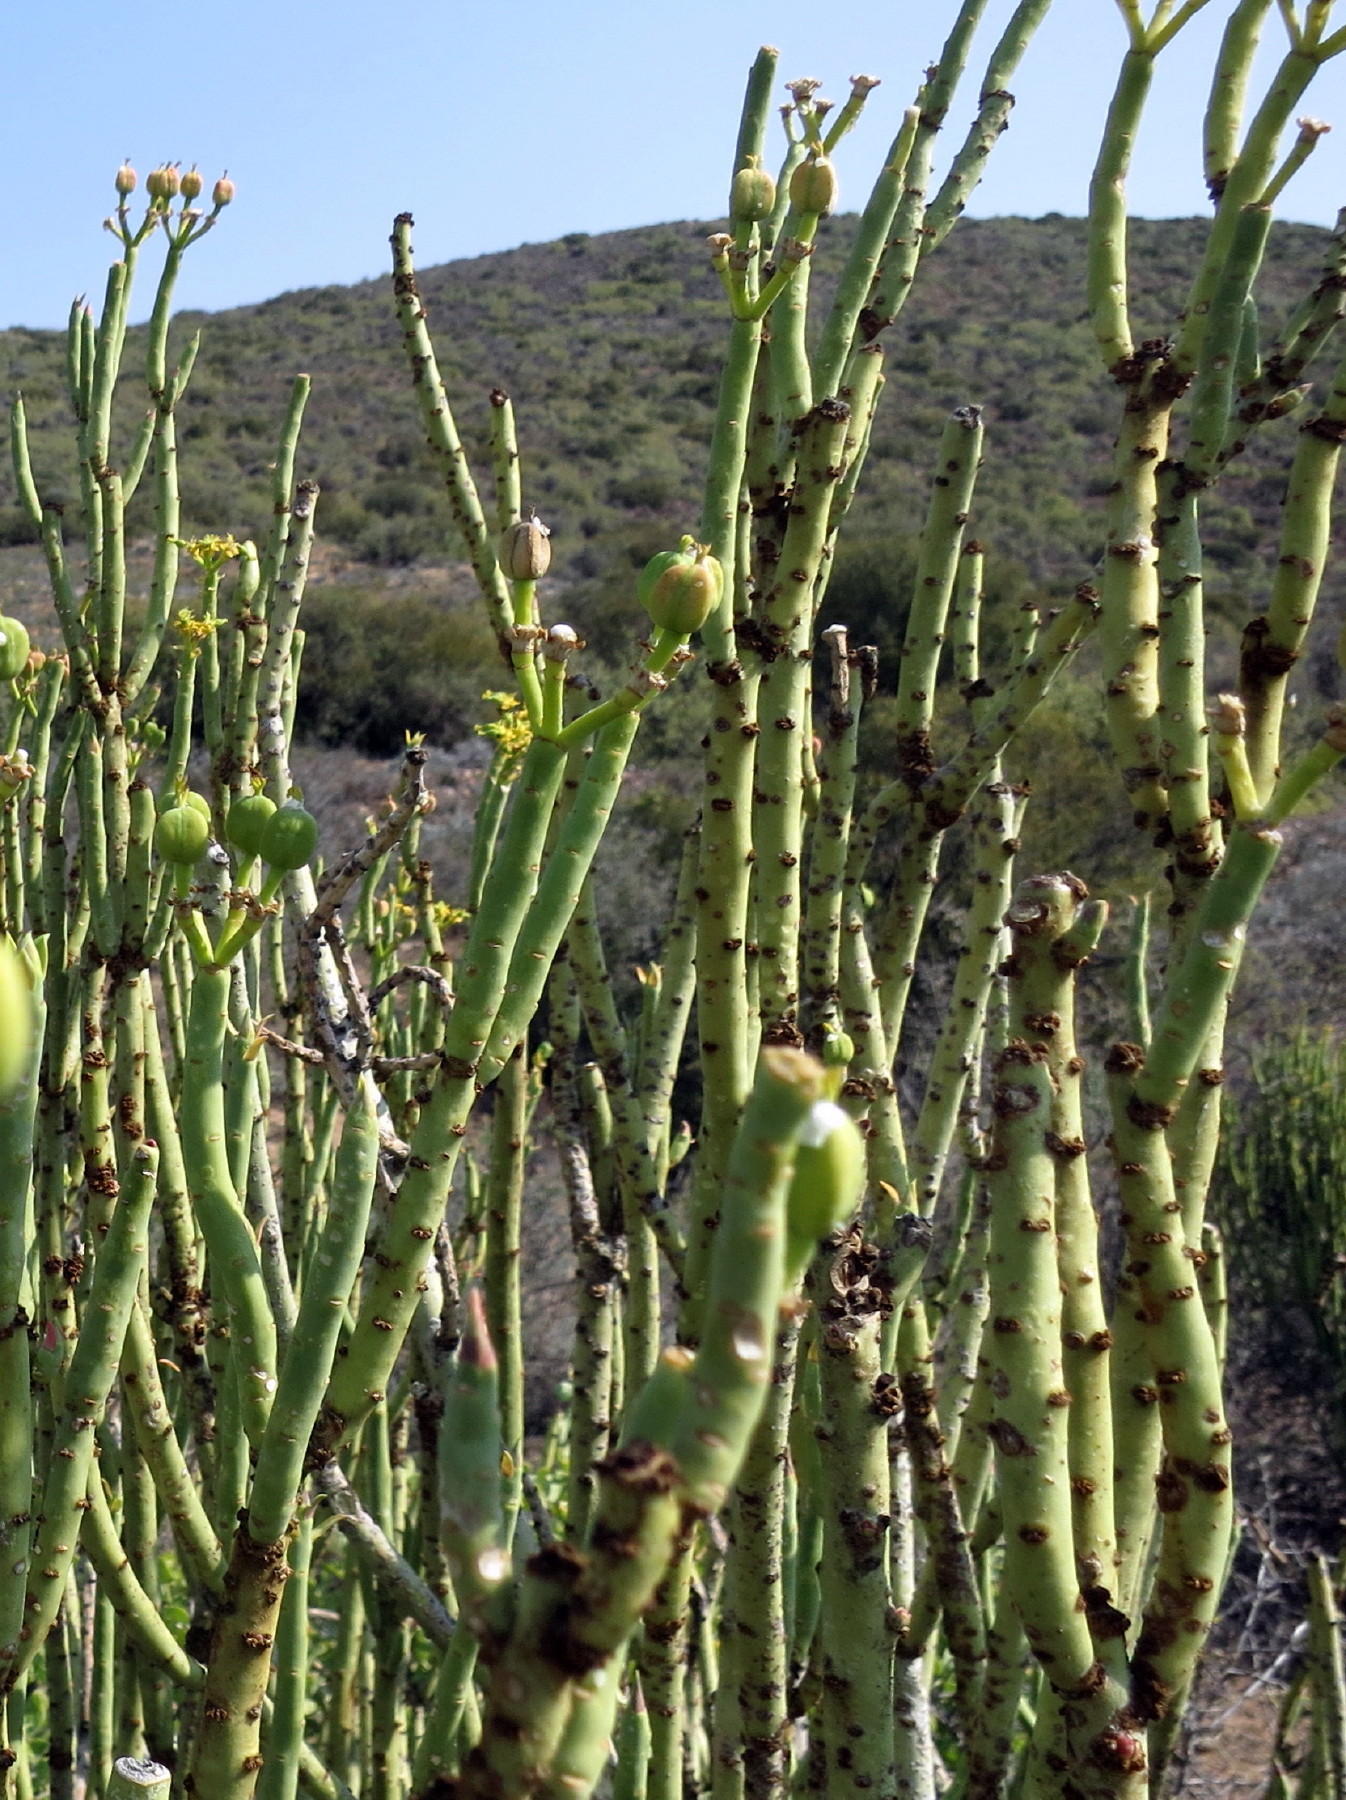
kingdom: Plantae
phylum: Tracheophyta
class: Magnoliopsida
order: Malpighiales
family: Euphorbiaceae
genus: Euphorbia
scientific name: Euphorbia mauritanica
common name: Jackal's-food
